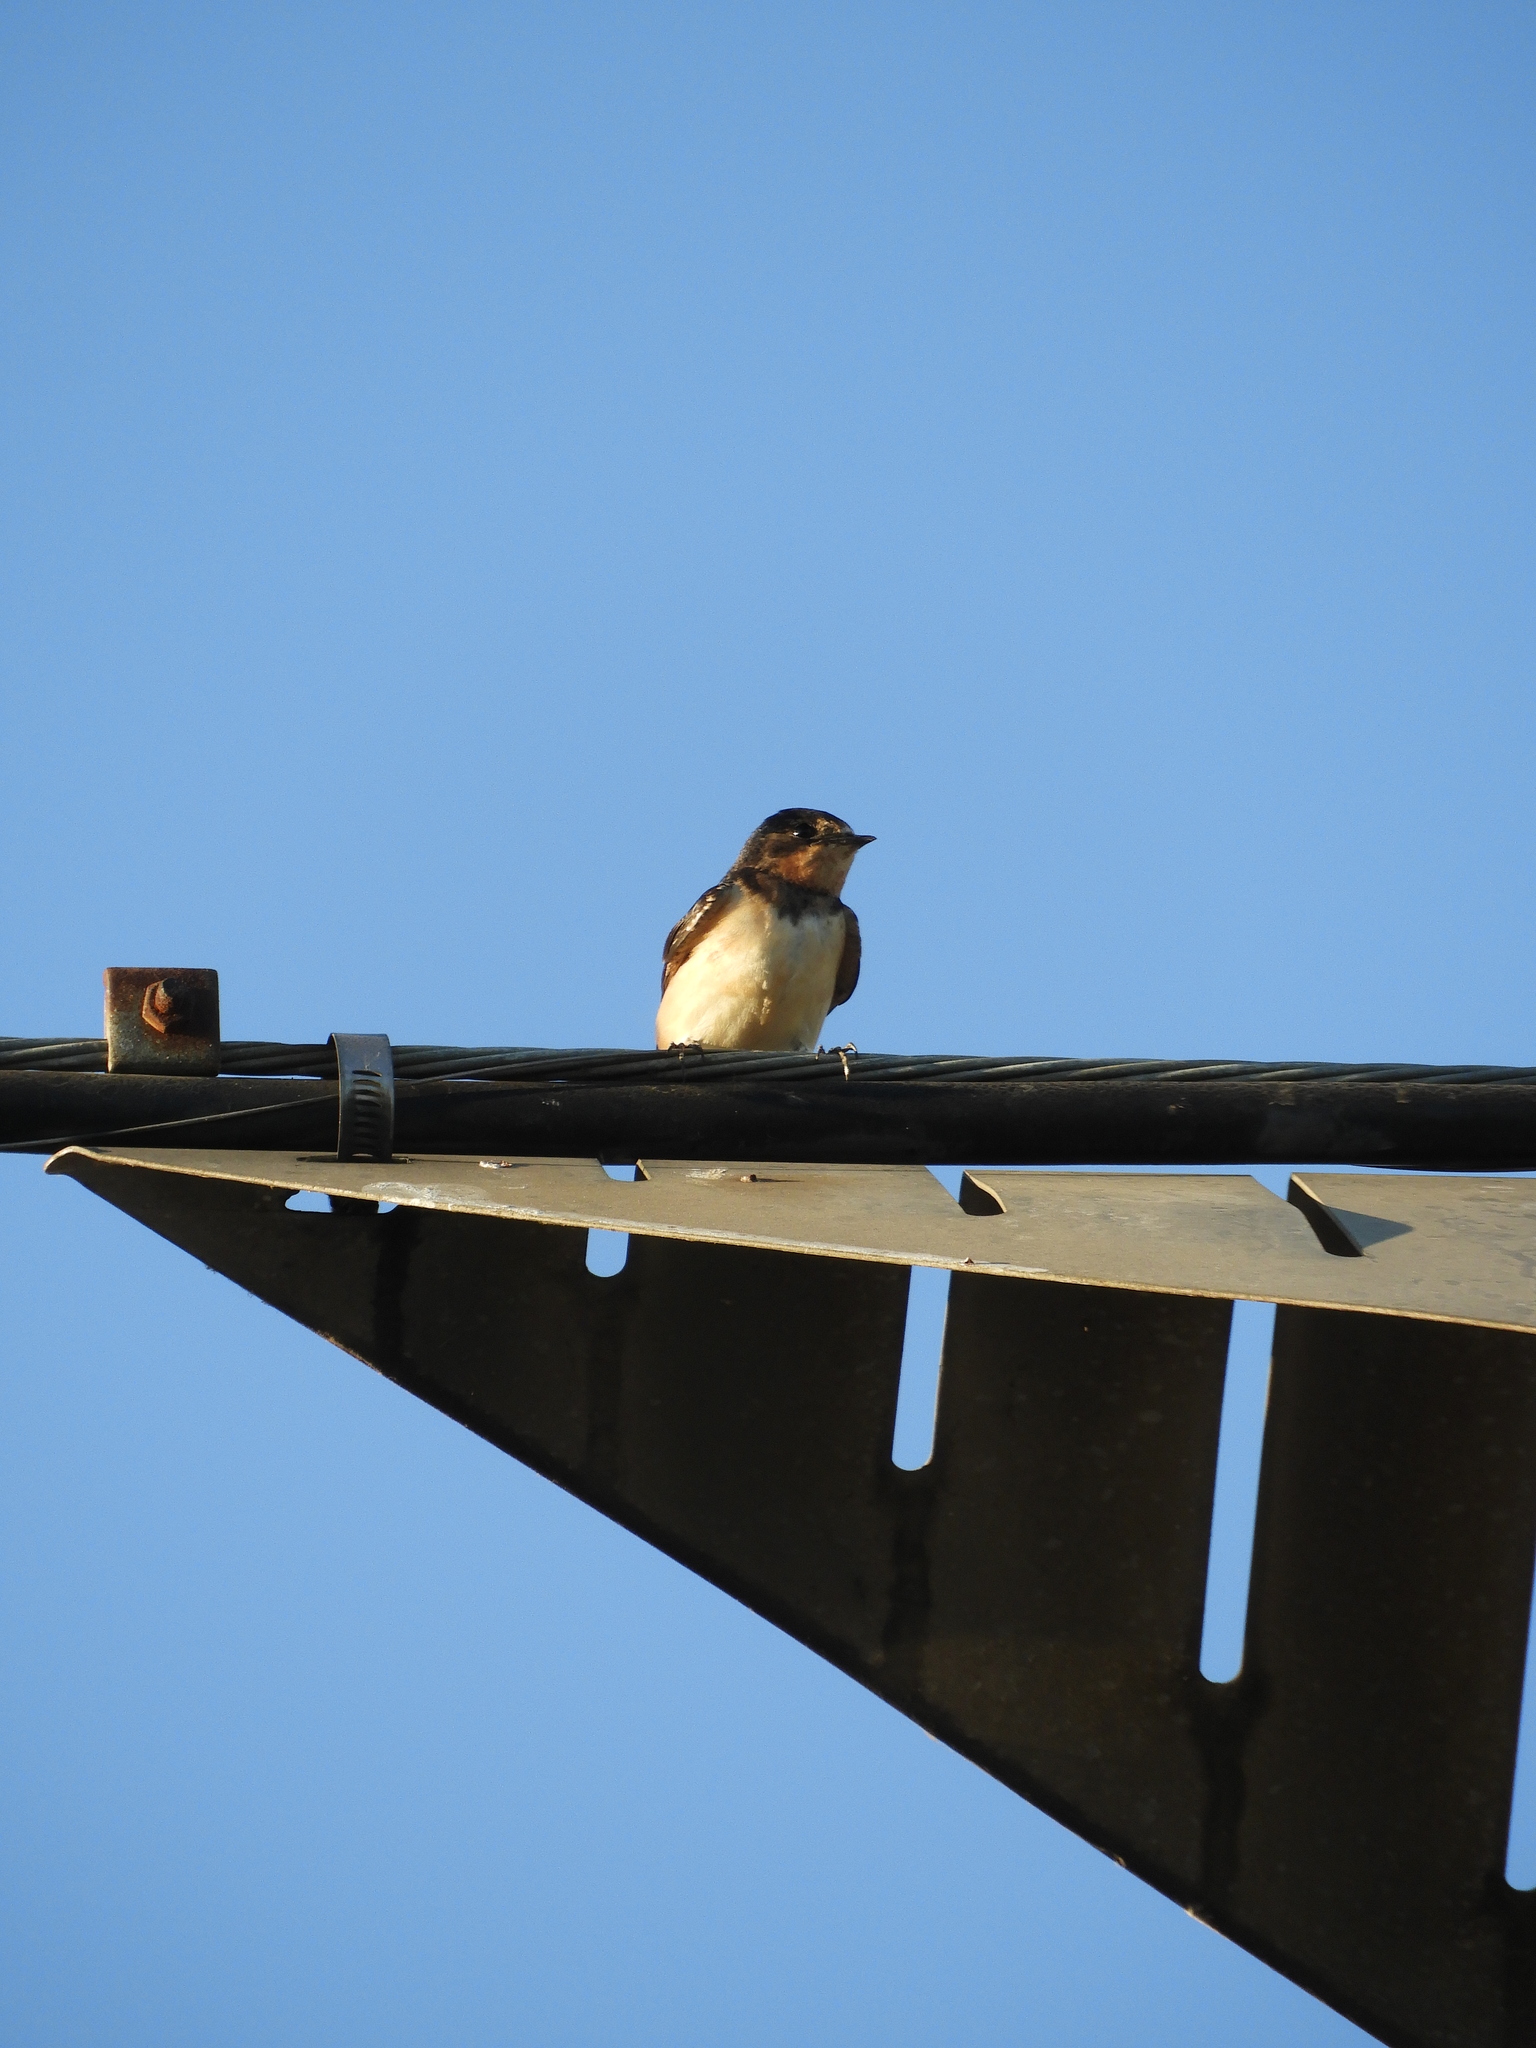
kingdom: Animalia
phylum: Chordata
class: Aves
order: Passeriformes
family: Hirundinidae
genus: Hirundo
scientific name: Hirundo rustica
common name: Barn swallow
